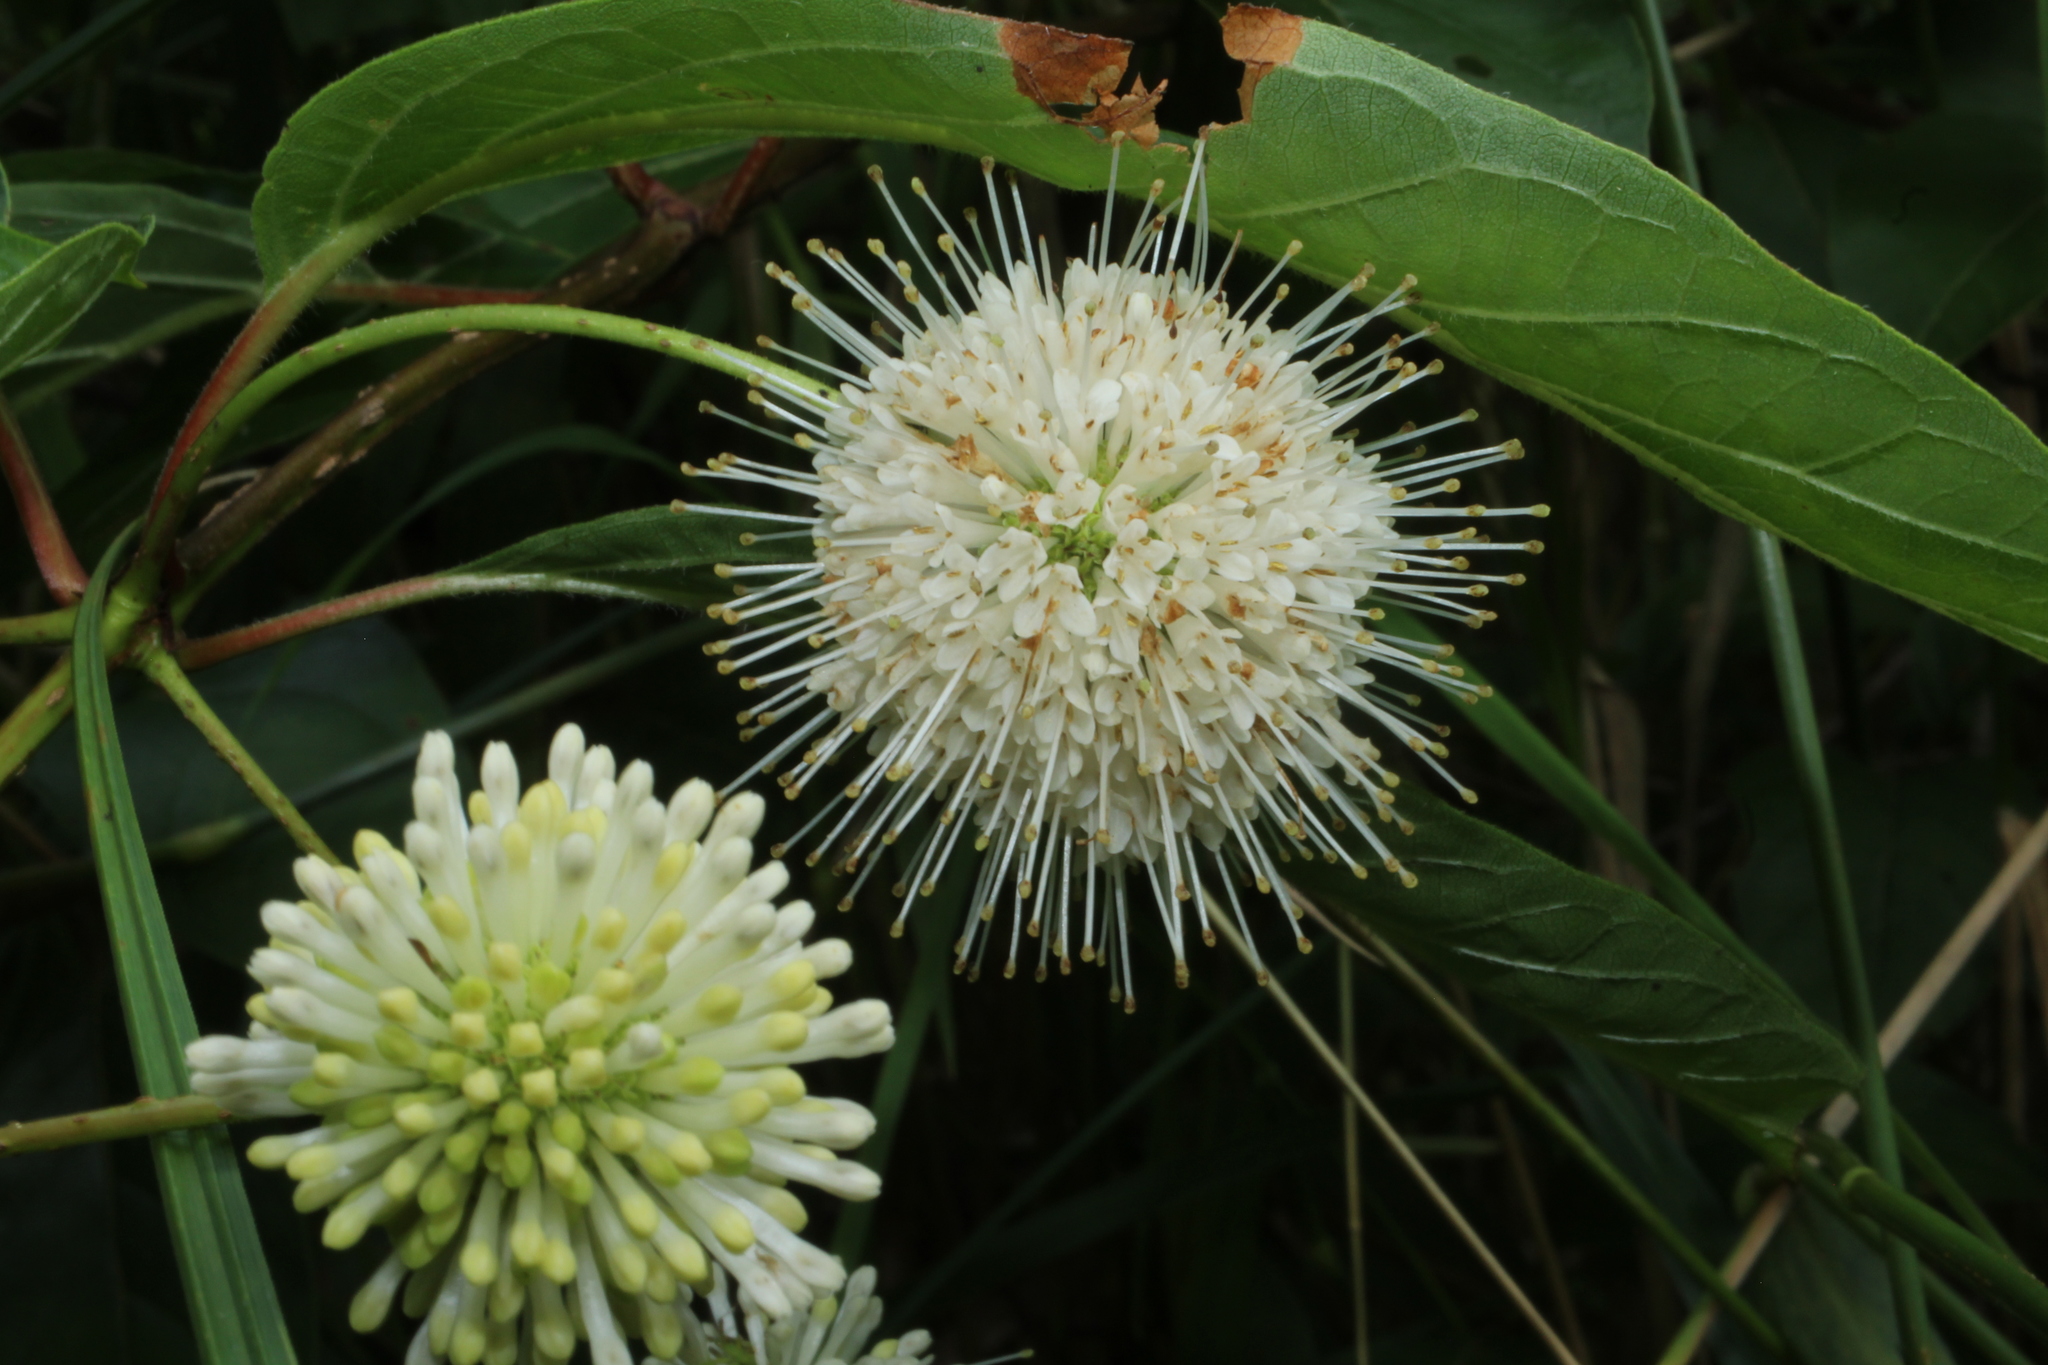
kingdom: Plantae
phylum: Tracheophyta
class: Magnoliopsida
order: Gentianales
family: Rubiaceae
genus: Cephalanthus
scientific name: Cephalanthus occidentalis
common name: Button-willow
